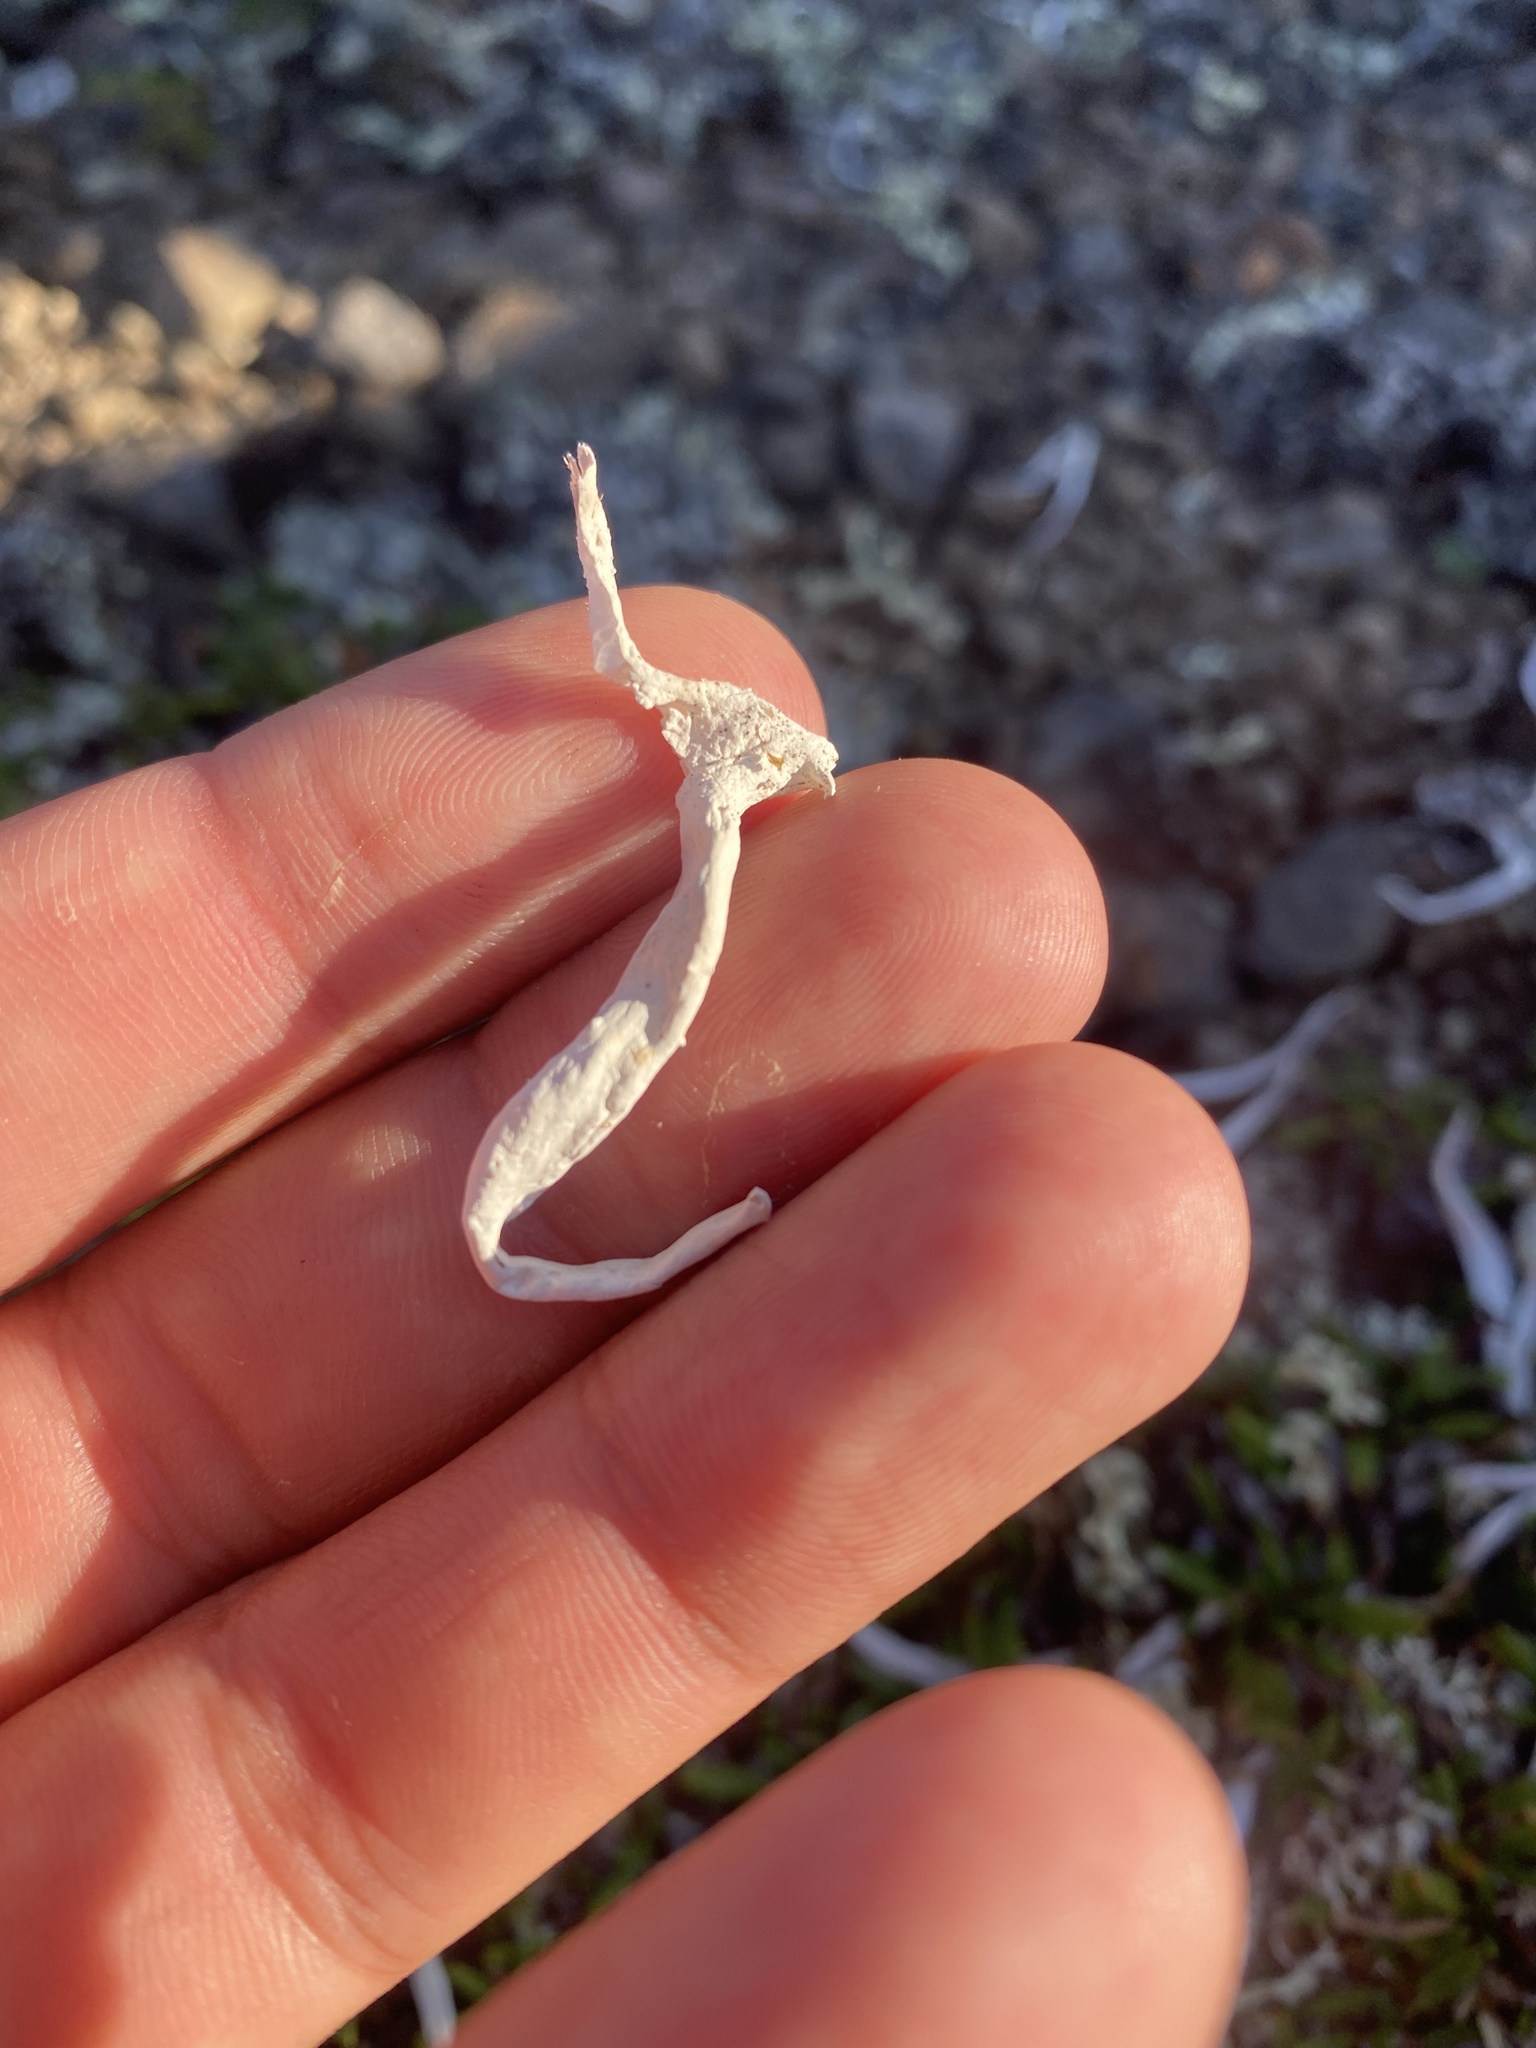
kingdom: Fungi
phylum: Ascomycota
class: Lecanoromycetes
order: Pertusariales
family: Icmadophilaceae
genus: Thamnolia
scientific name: Thamnolia vermicularis
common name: Whiteworm lichen
